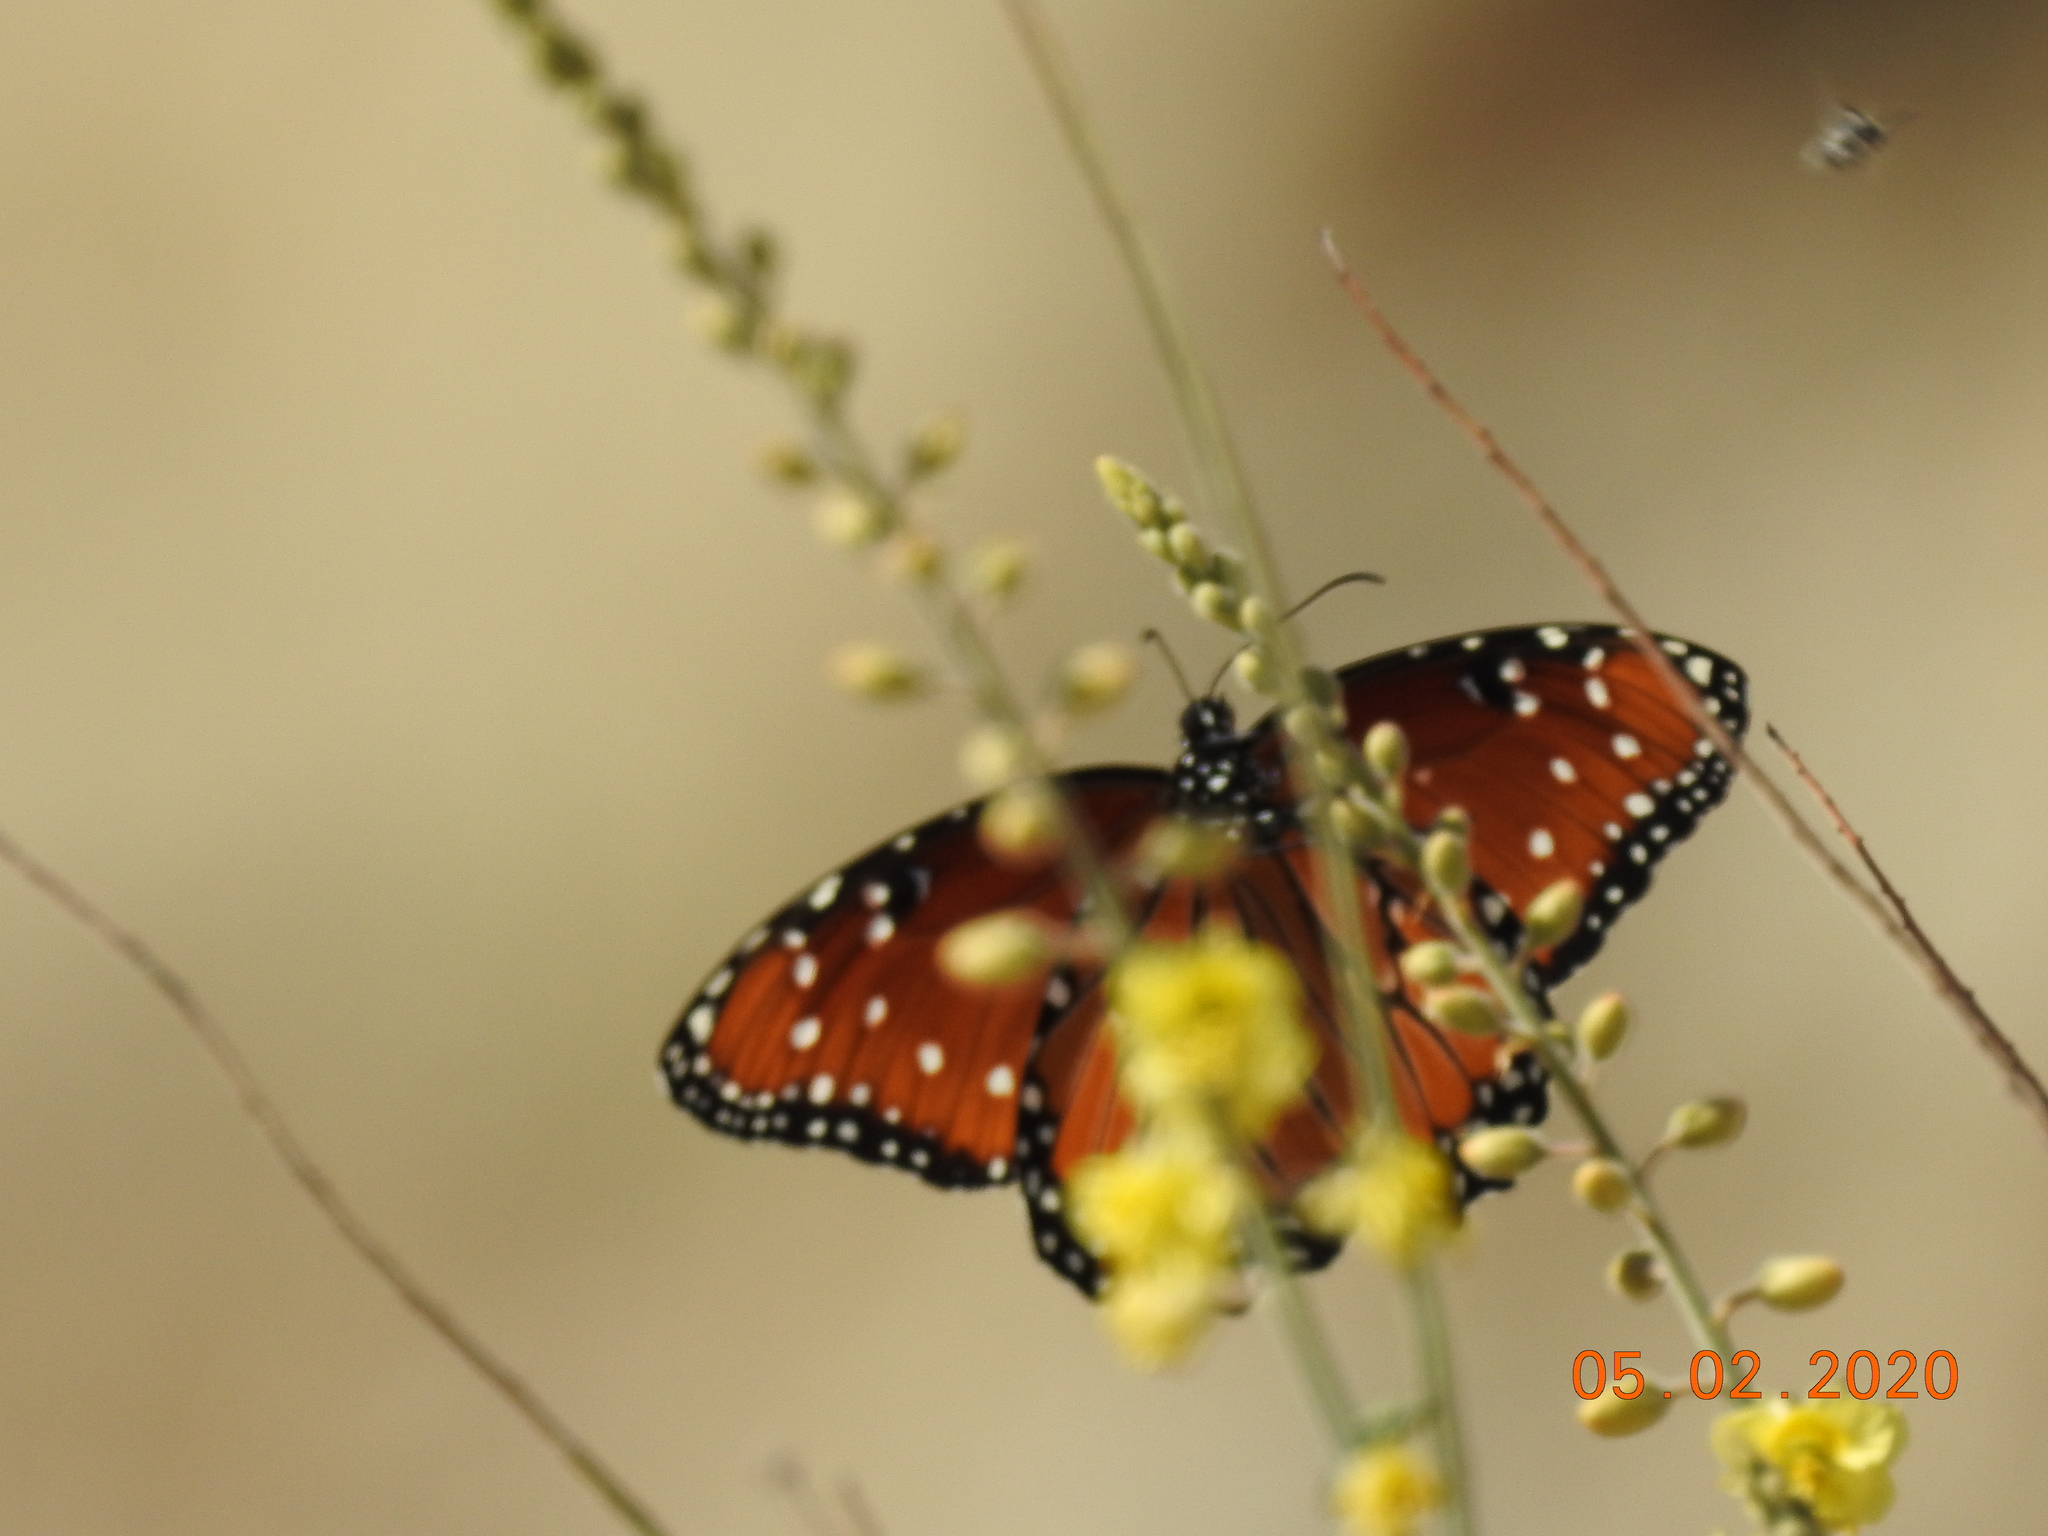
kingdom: Animalia
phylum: Arthropoda
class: Insecta
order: Lepidoptera
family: Nymphalidae
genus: Danaus
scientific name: Danaus gilippus
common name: Queen
